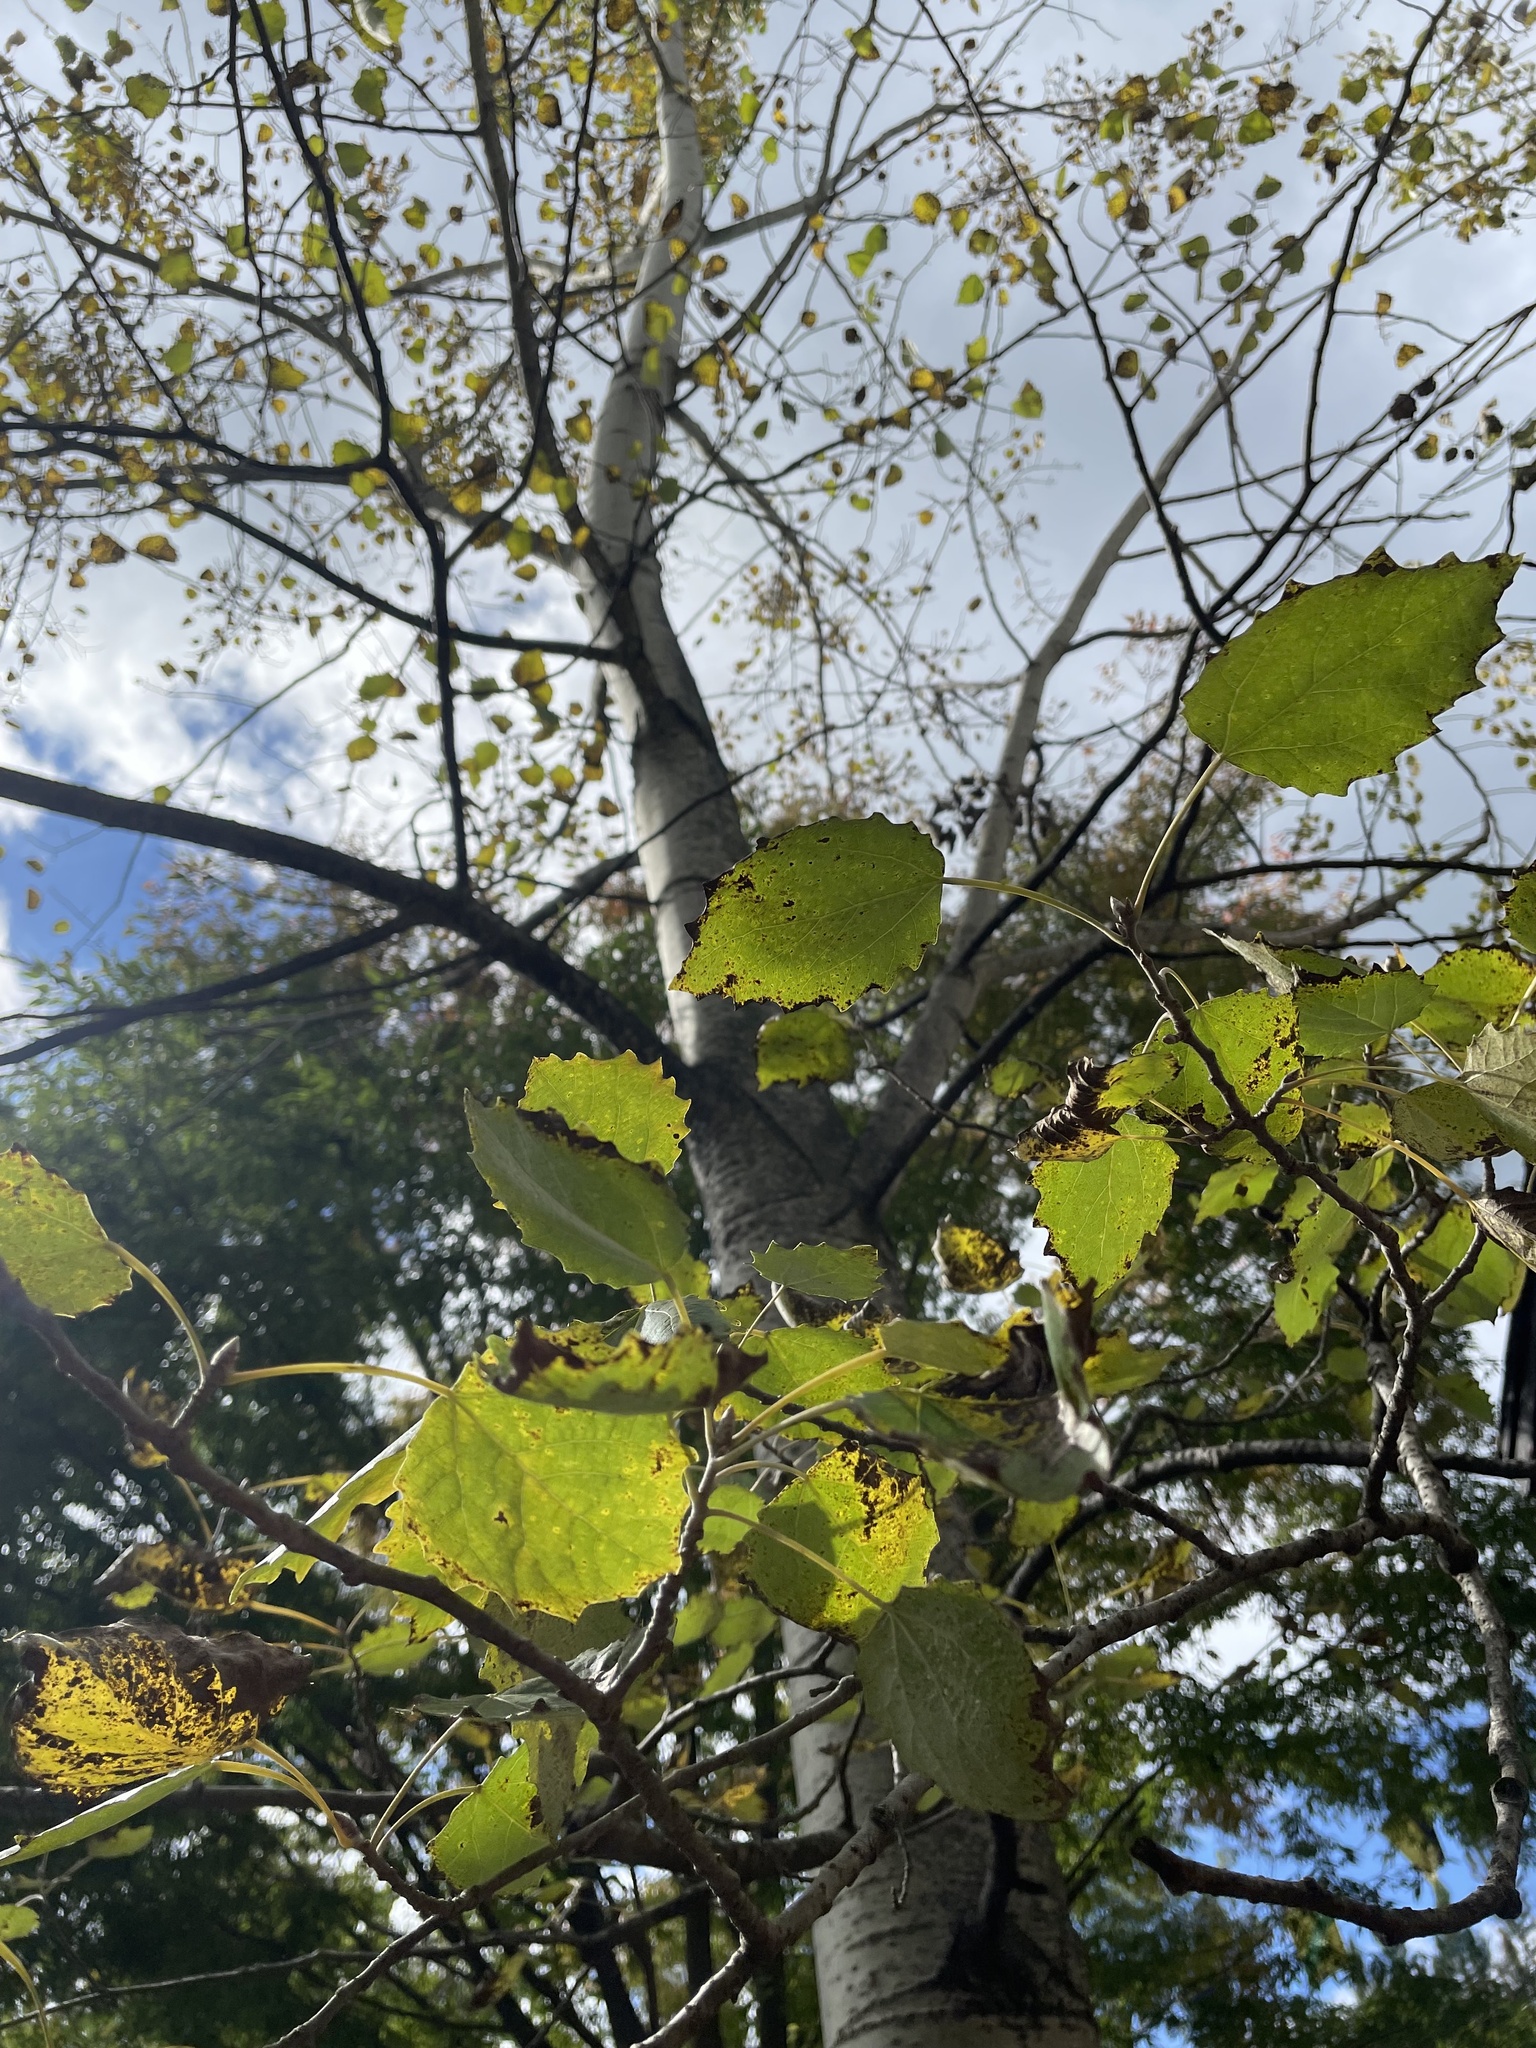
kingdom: Plantae
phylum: Tracheophyta
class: Magnoliopsida
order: Malpighiales
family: Salicaceae
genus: Populus
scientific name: Populus grandidentata
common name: Bigtooth aspen
